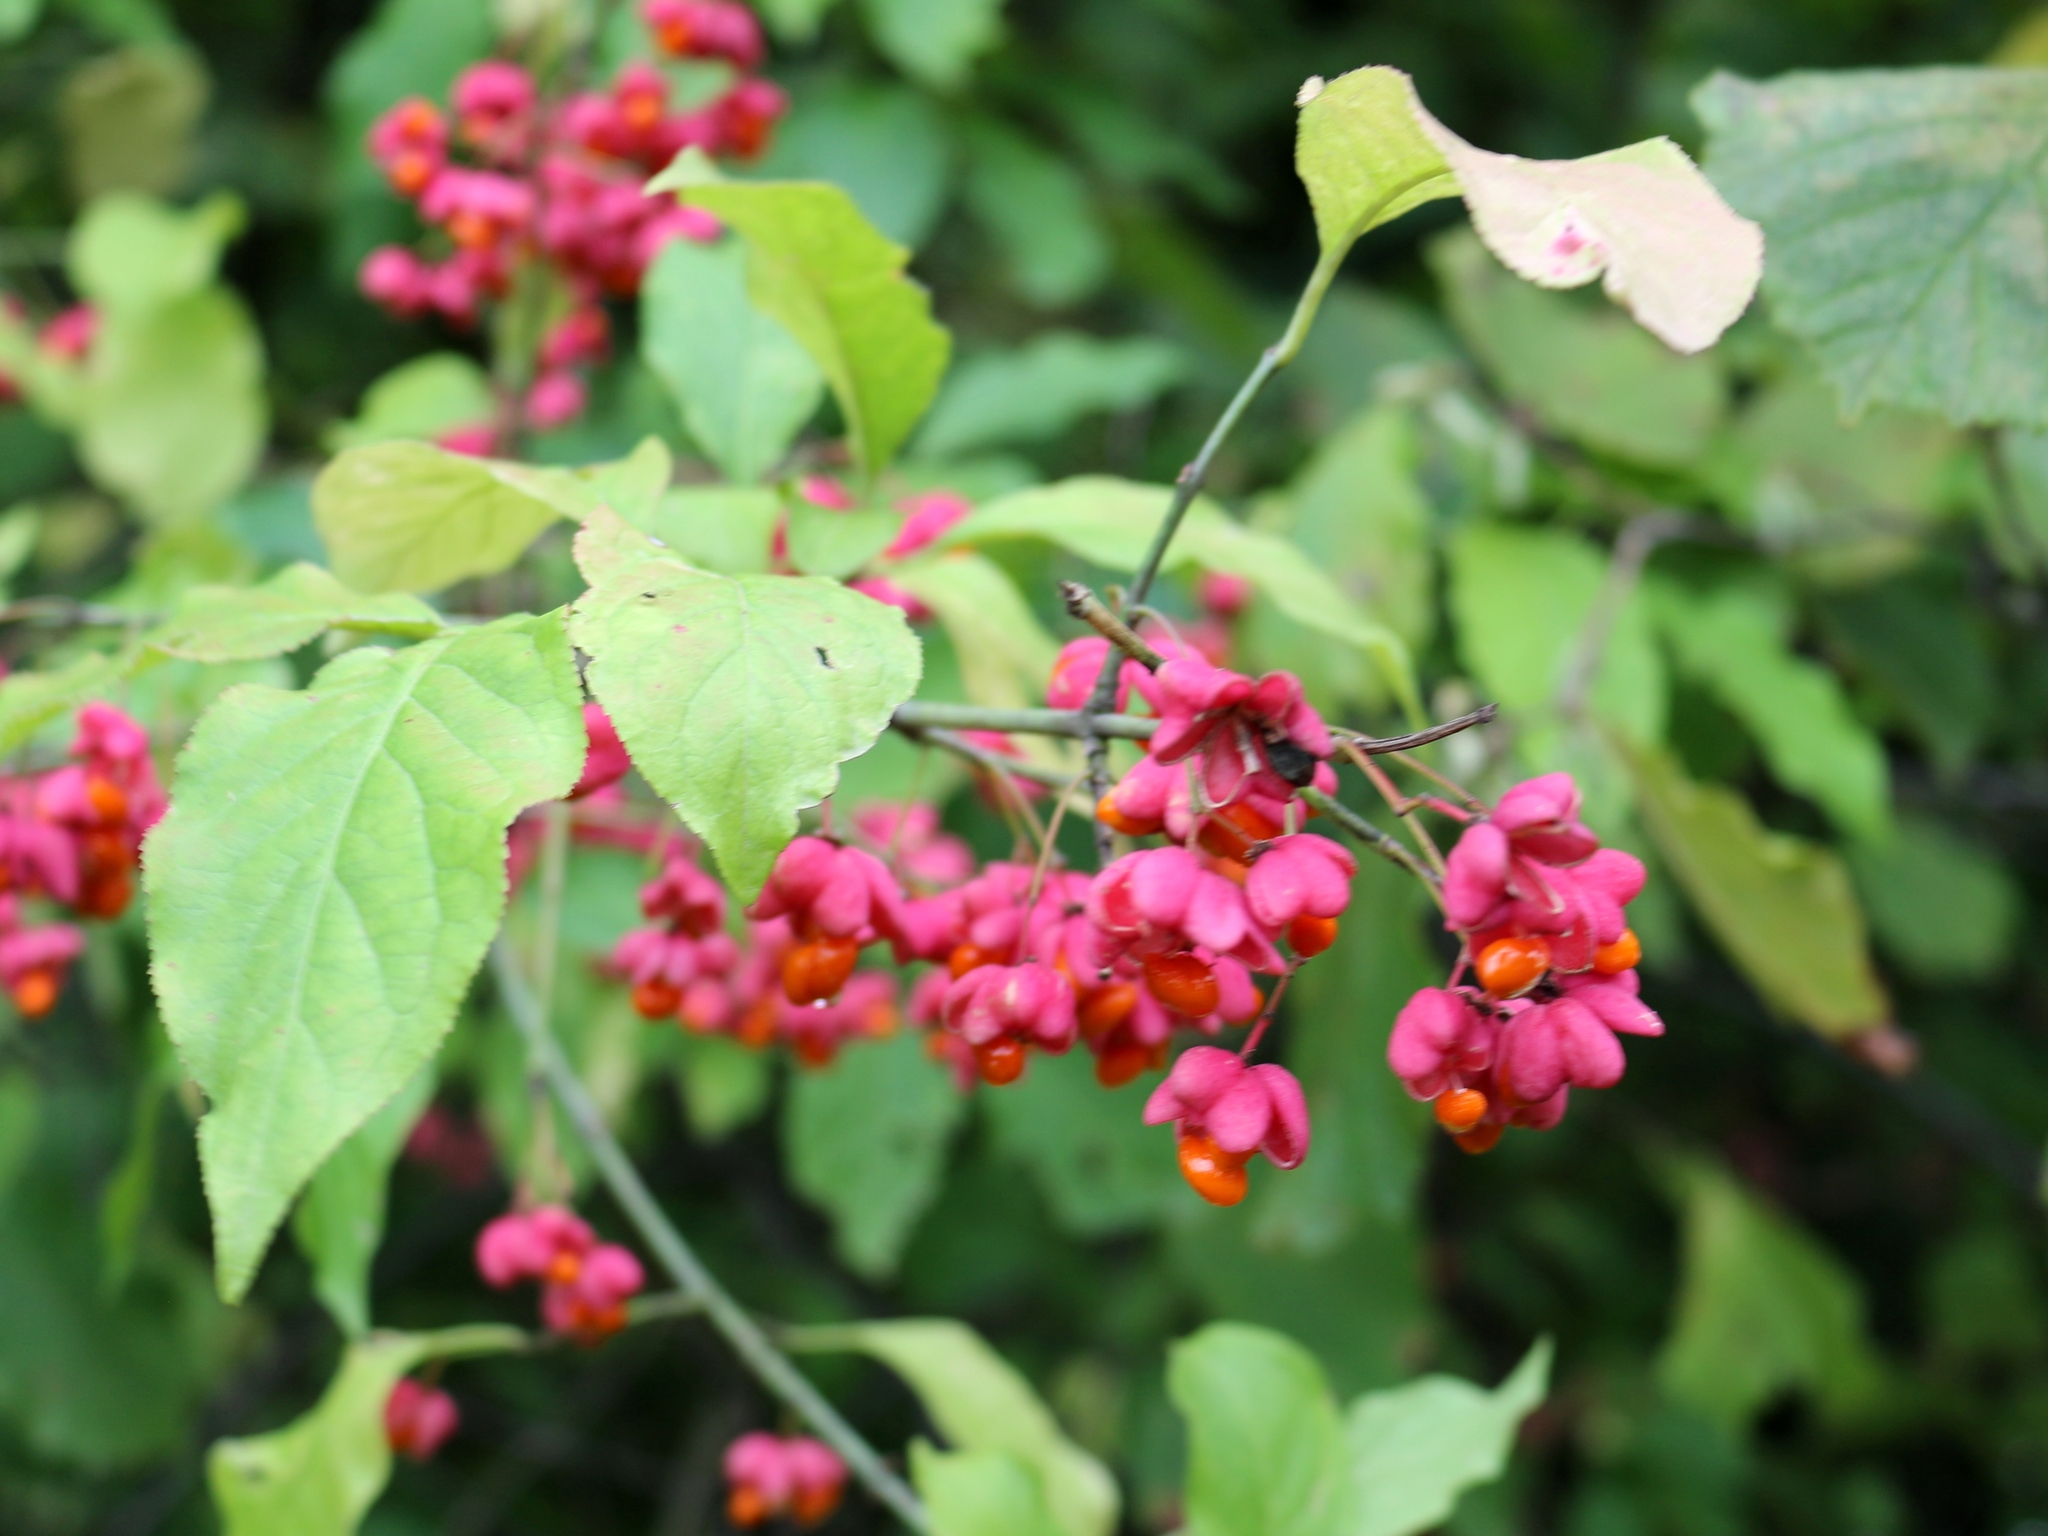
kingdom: Plantae
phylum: Tracheophyta
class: Magnoliopsida
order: Celastrales
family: Celastraceae
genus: Euonymus
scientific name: Euonymus europaeus
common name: Spindle
